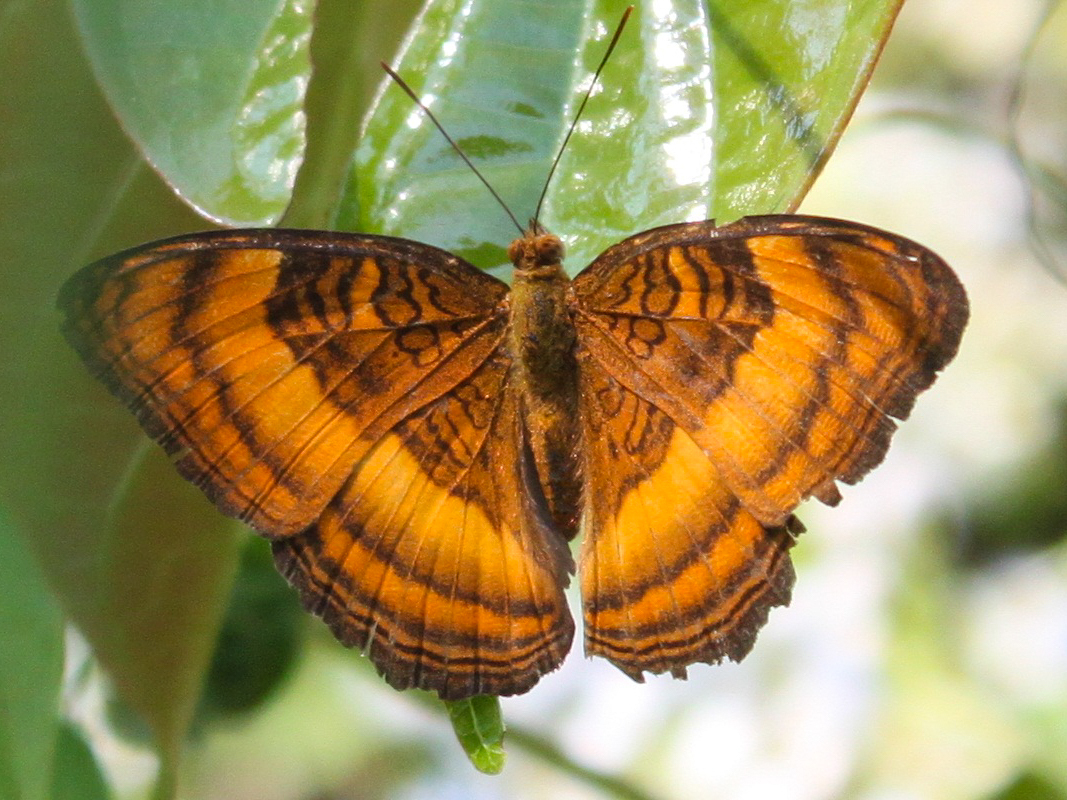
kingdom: Animalia
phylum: Arthropoda
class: Insecta
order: Lepidoptera
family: Nymphalidae
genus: Pandita
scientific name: Pandita sinope
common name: Colonel
